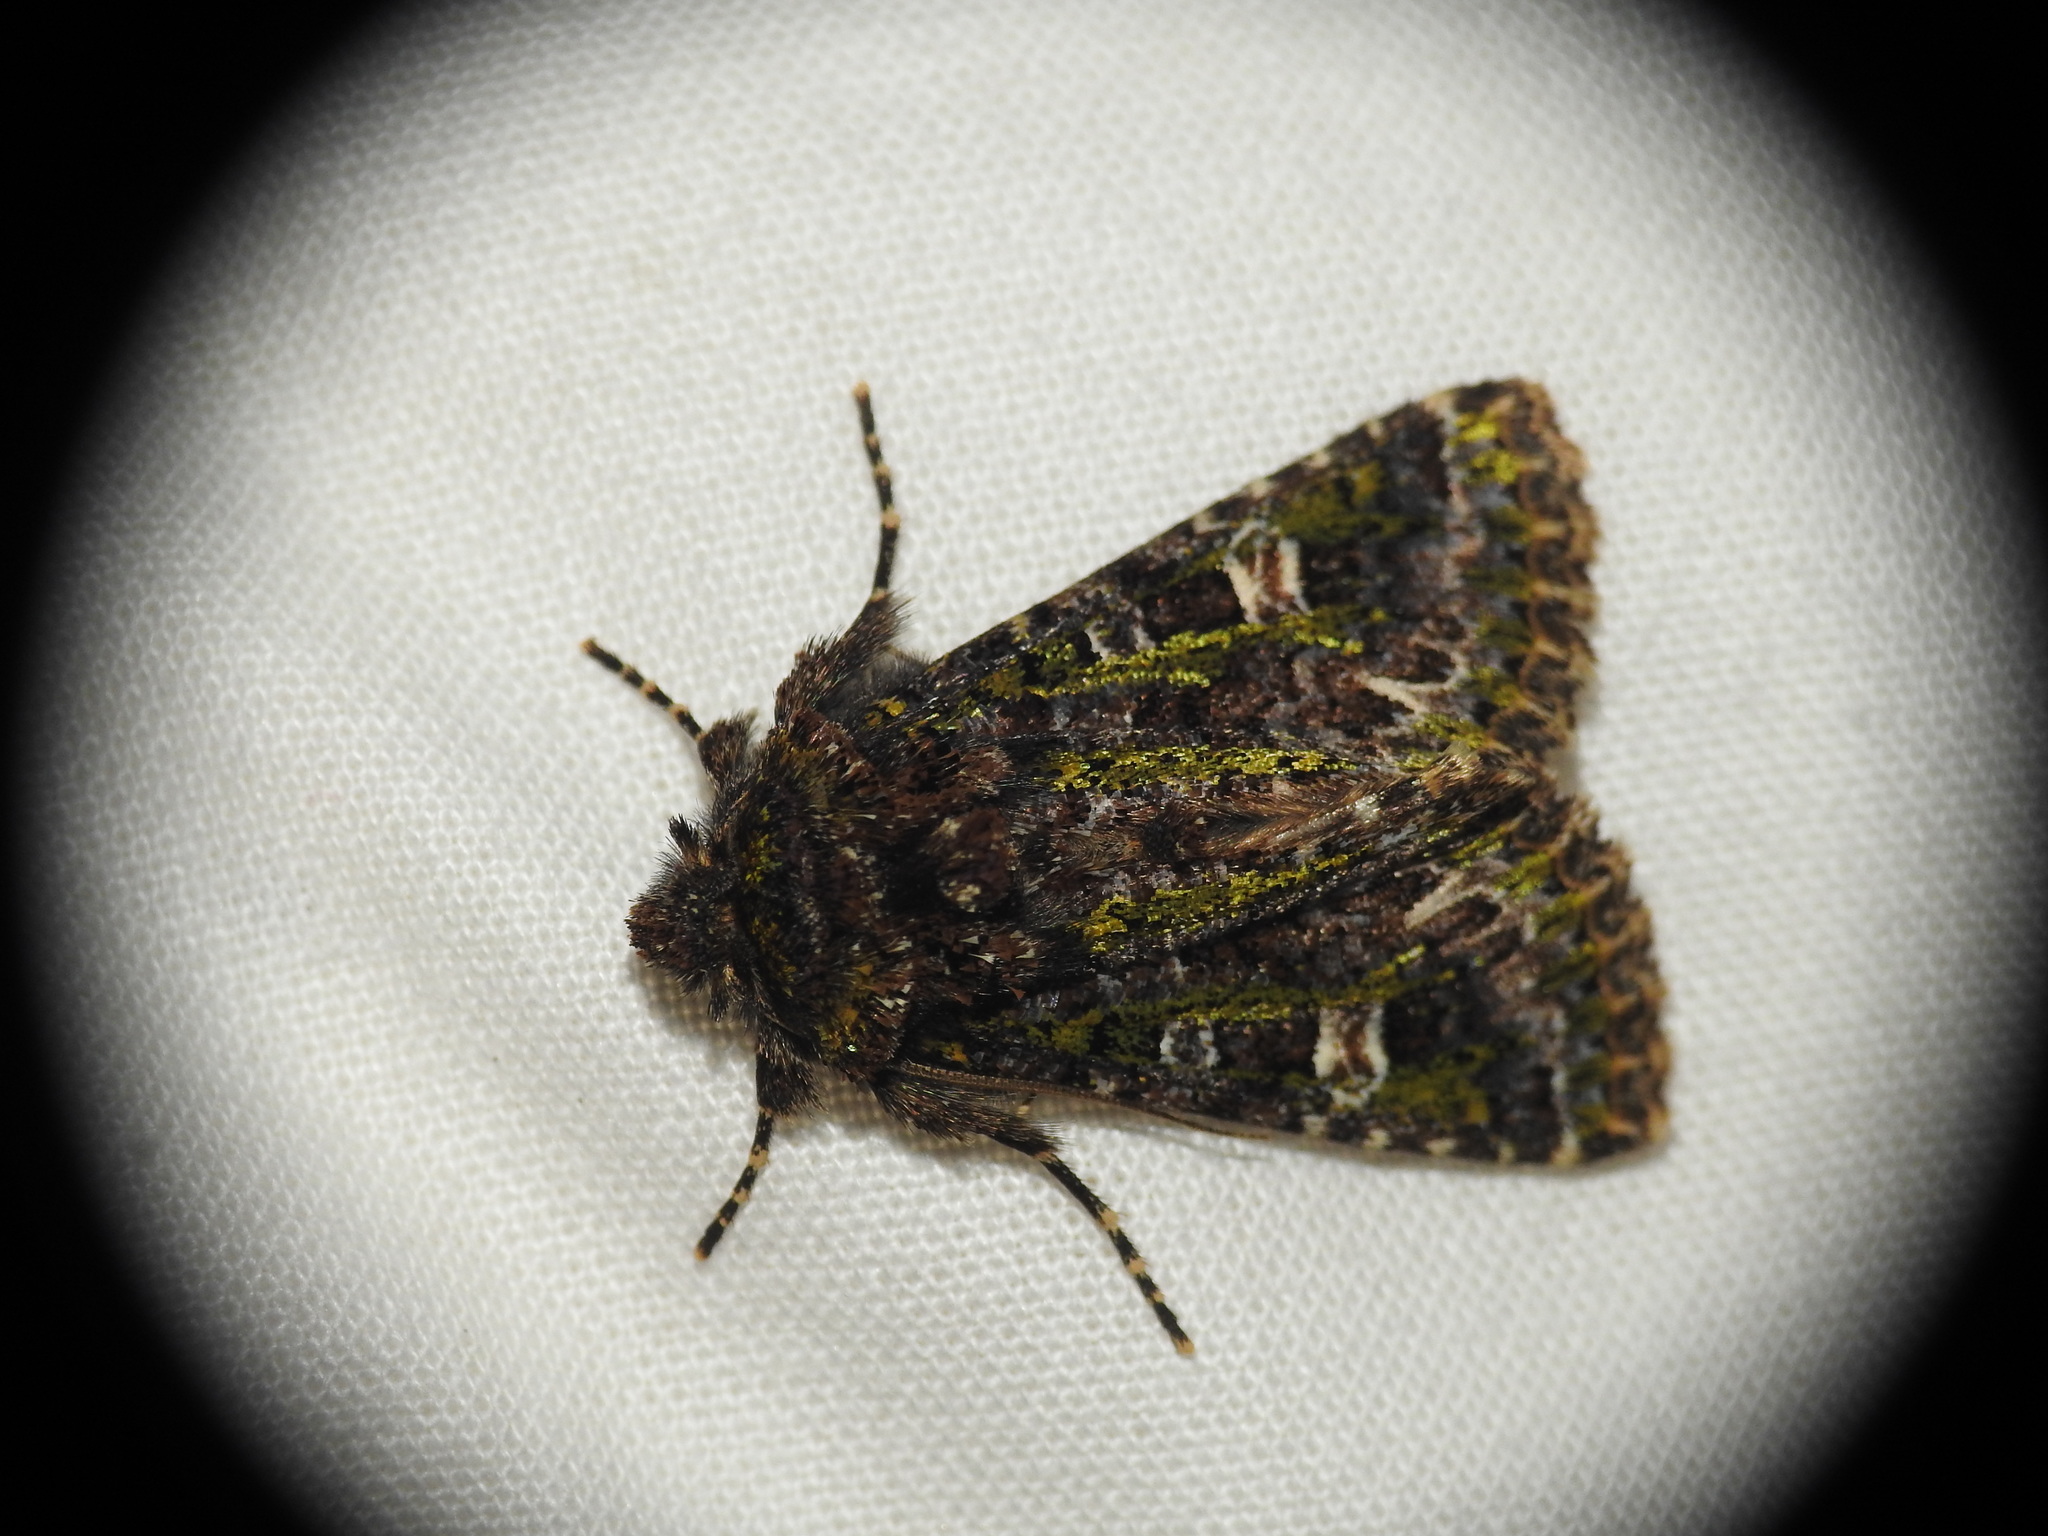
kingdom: Animalia
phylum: Arthropoda
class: Insecta
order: Lepidoptera
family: Noctuidae
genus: Valeria
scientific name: Valeria jaspidea
